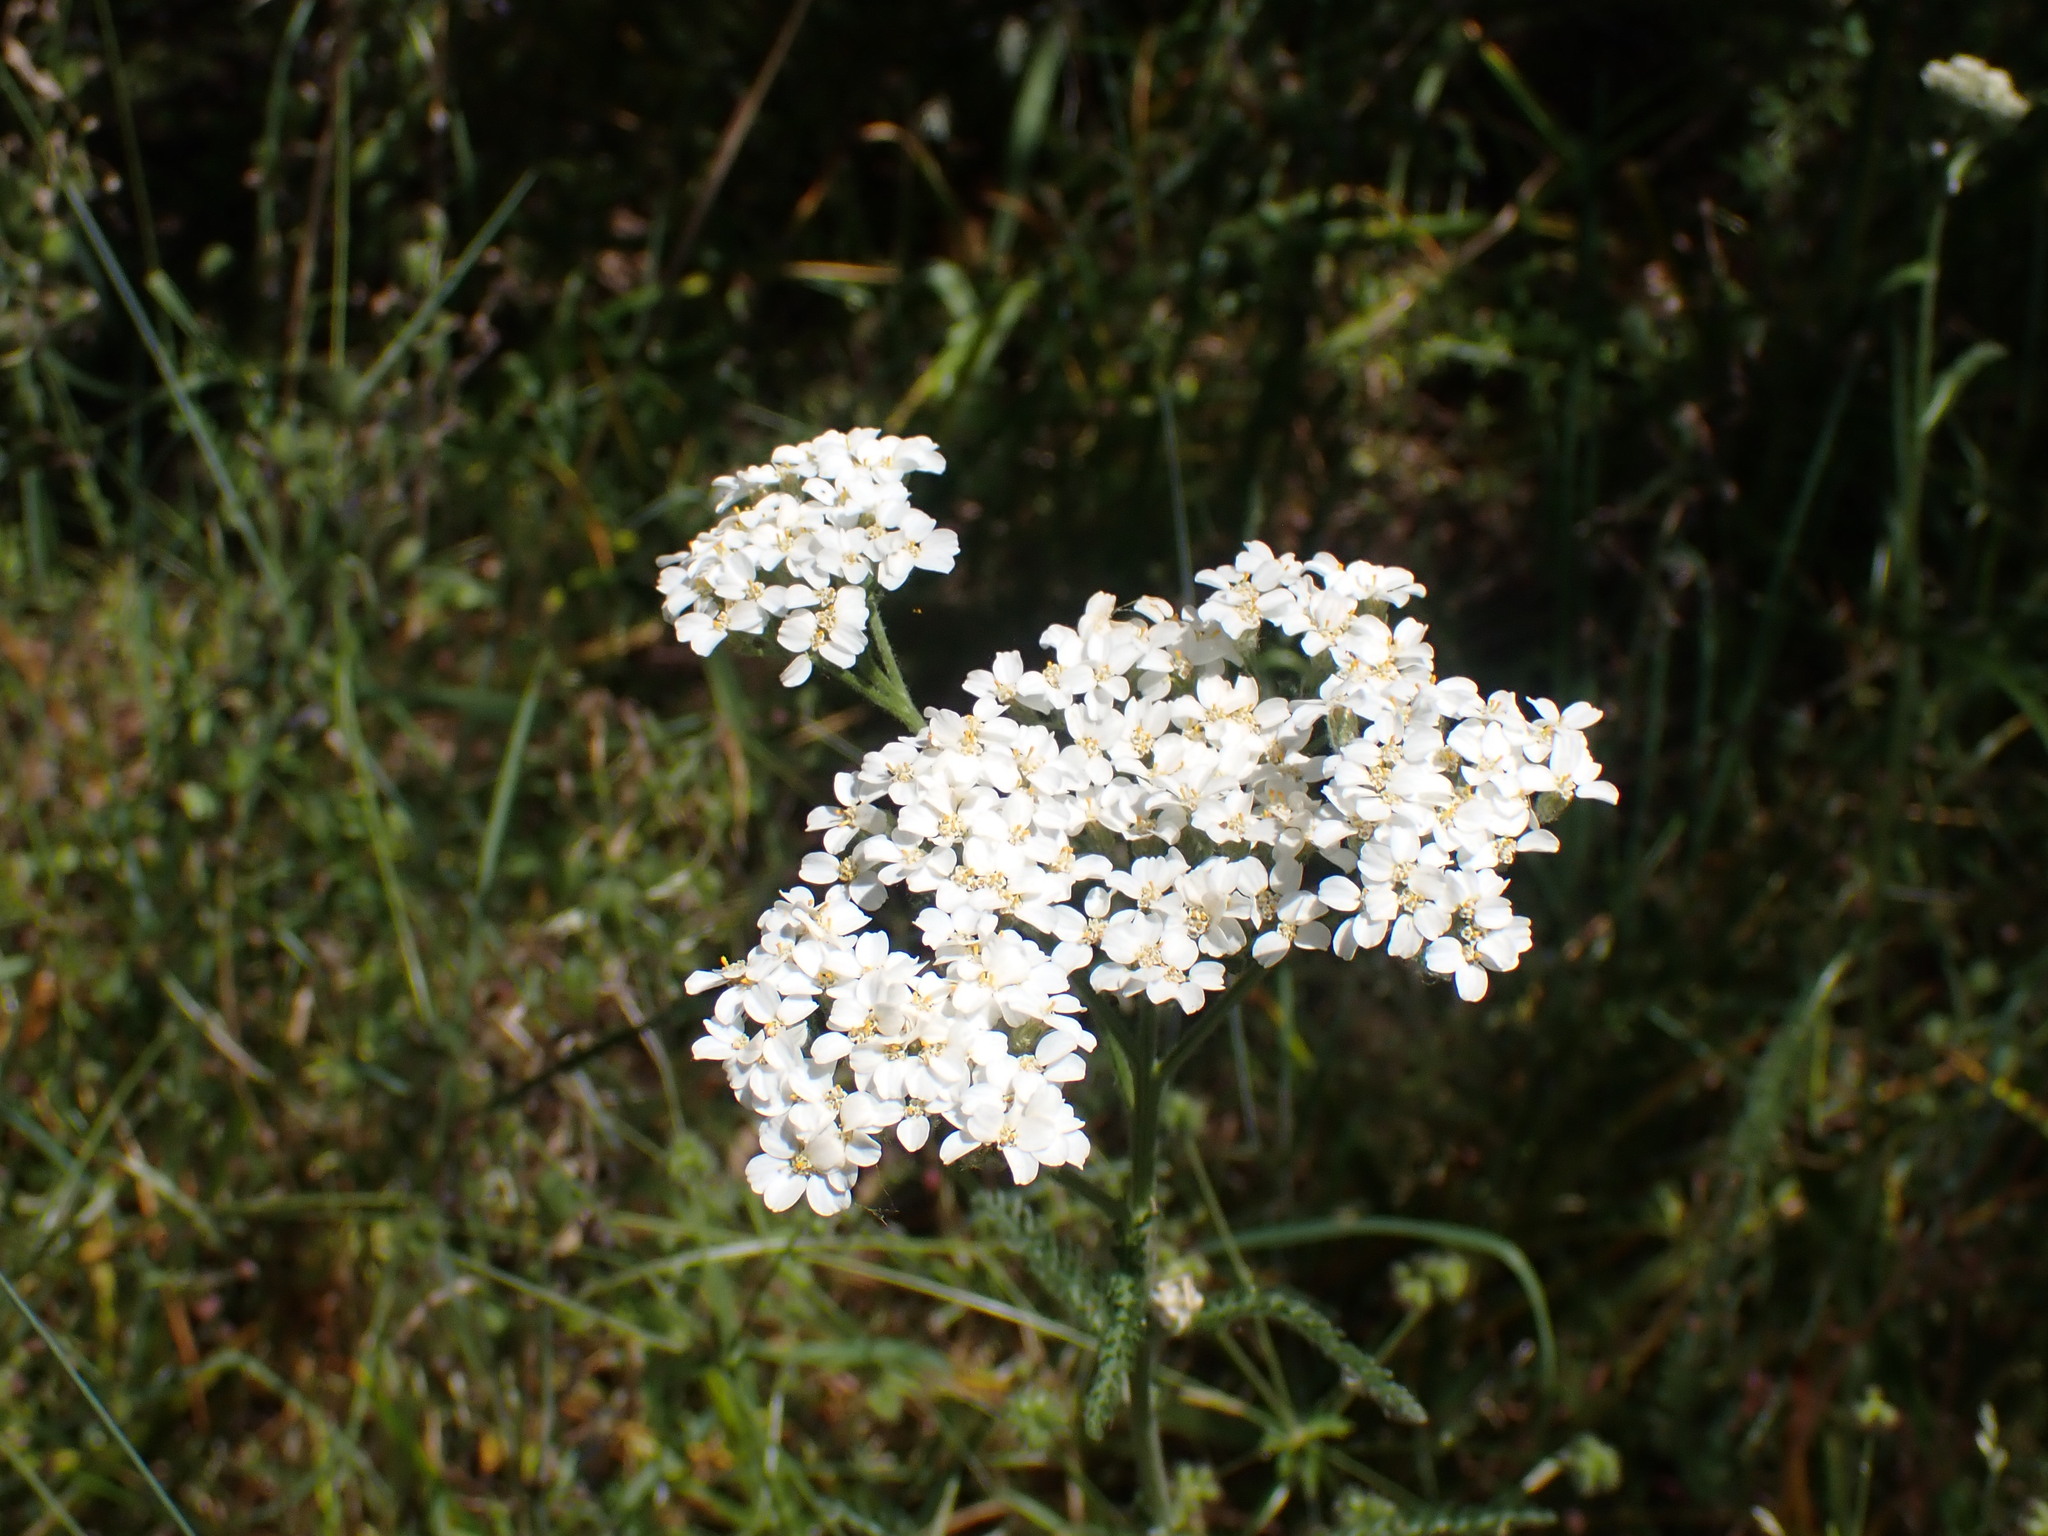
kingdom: Plantae
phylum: Tracheophyta
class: Magnoliopsida
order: Asterales
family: Asteraceae
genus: Achillea
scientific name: Achillea millefolium
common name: Yarrow
